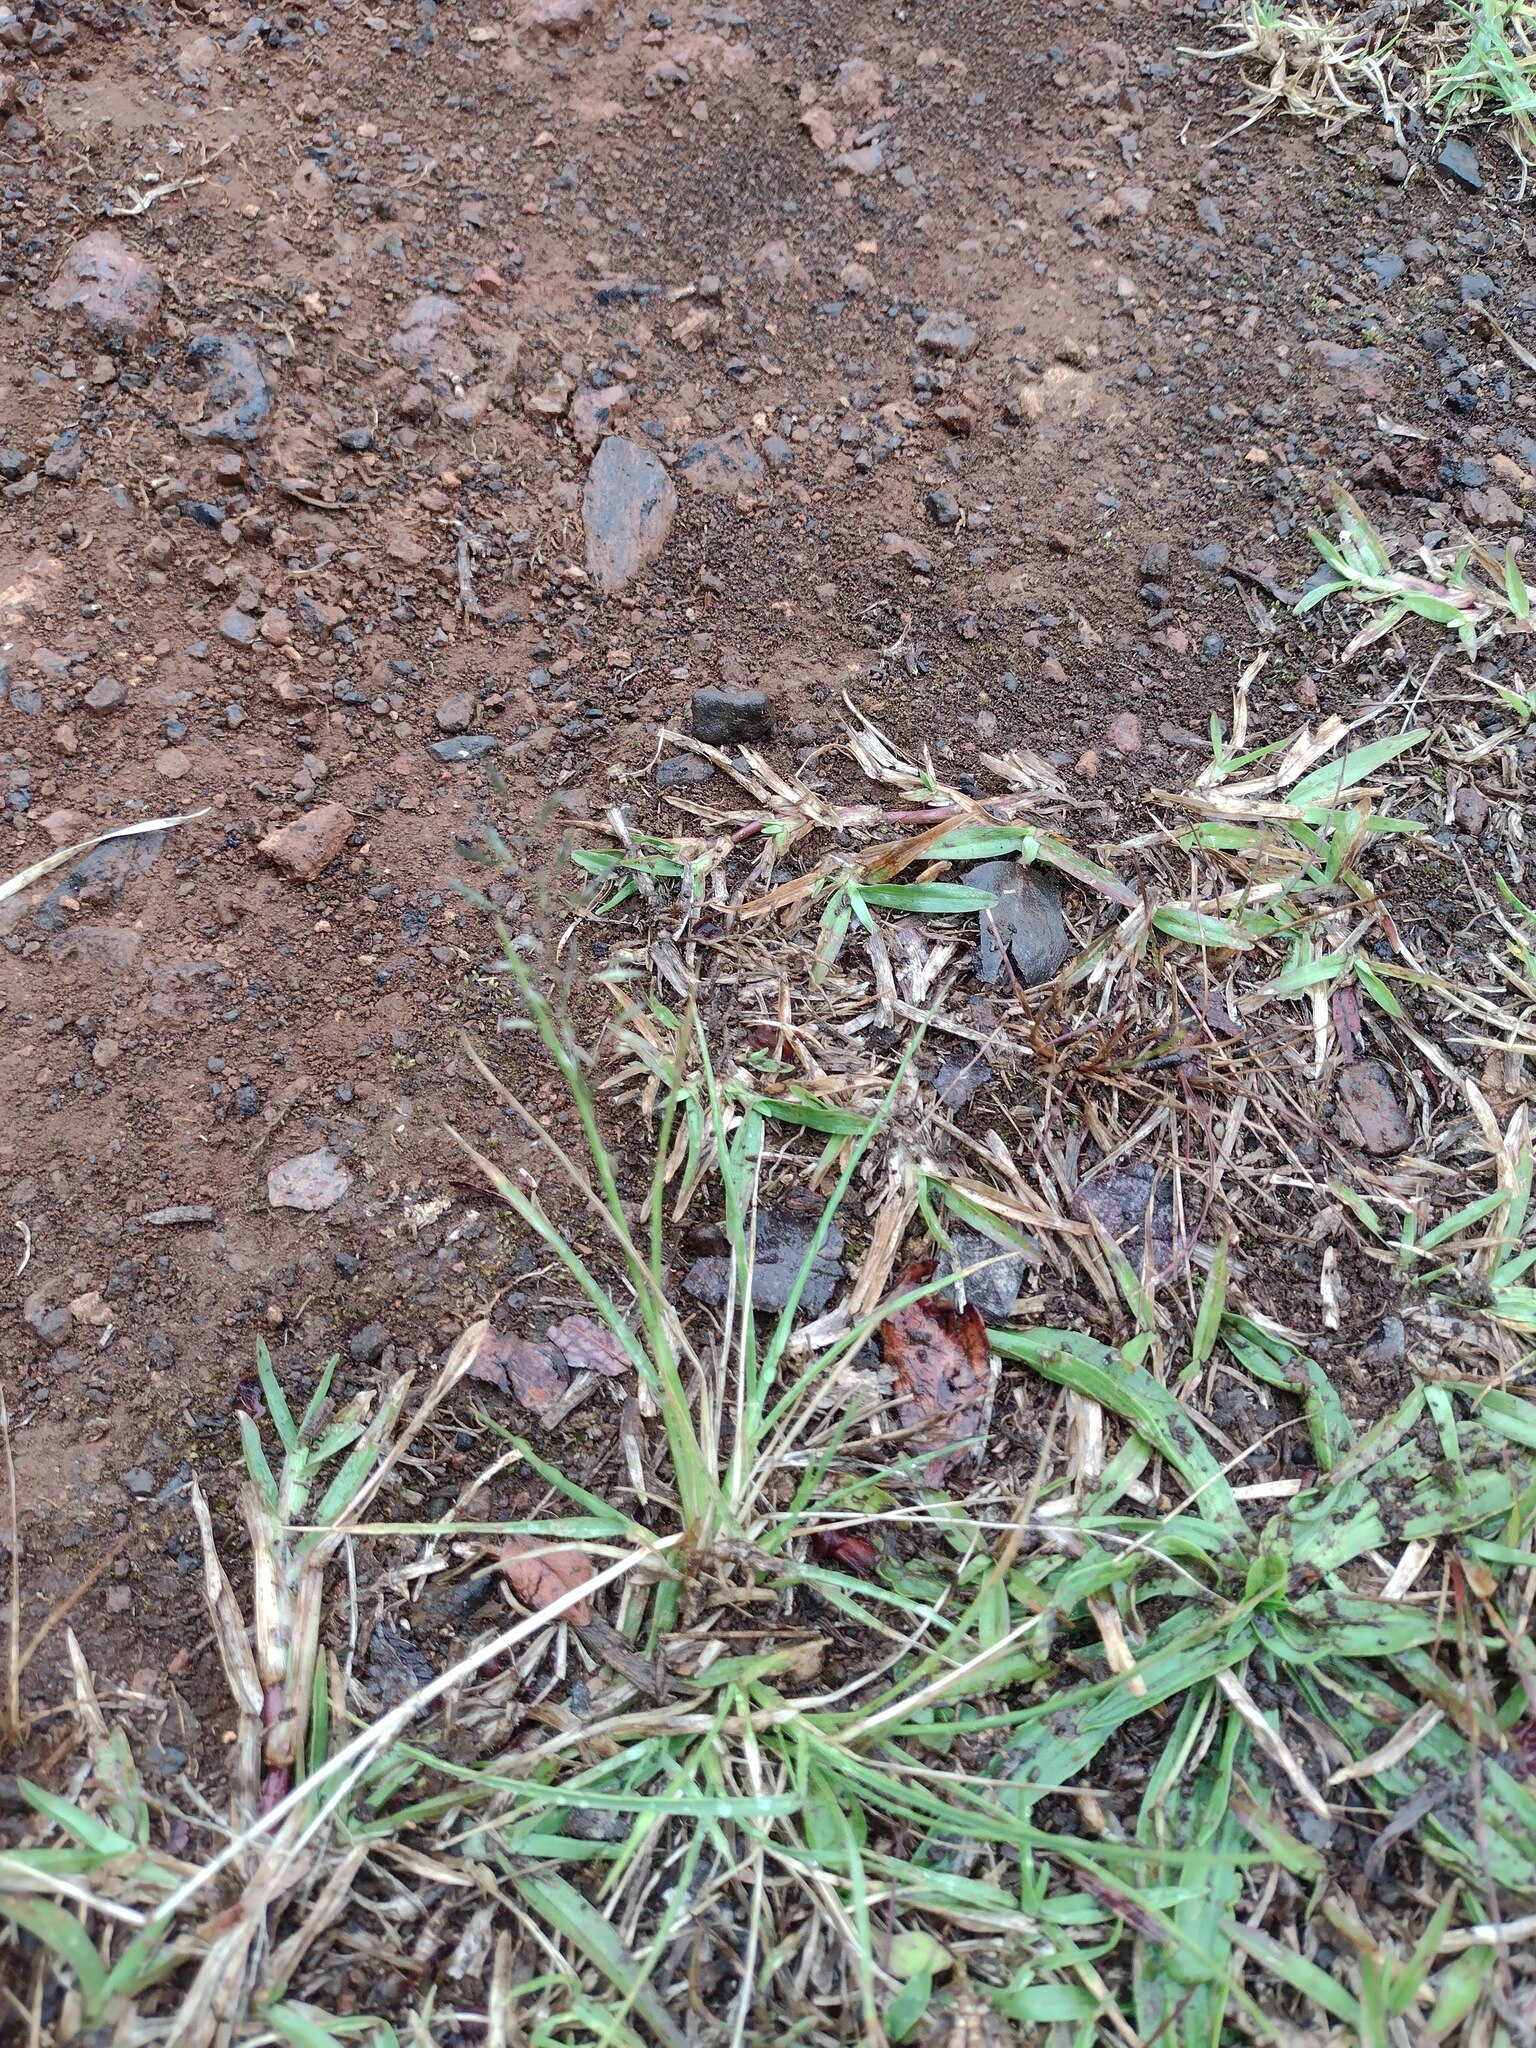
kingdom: Plantae
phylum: Tracheophyta
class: Liliopsida
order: Poales
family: Poaceae
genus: Eragrostis
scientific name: Eragrostis tenuifolia
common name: Elastic grass
